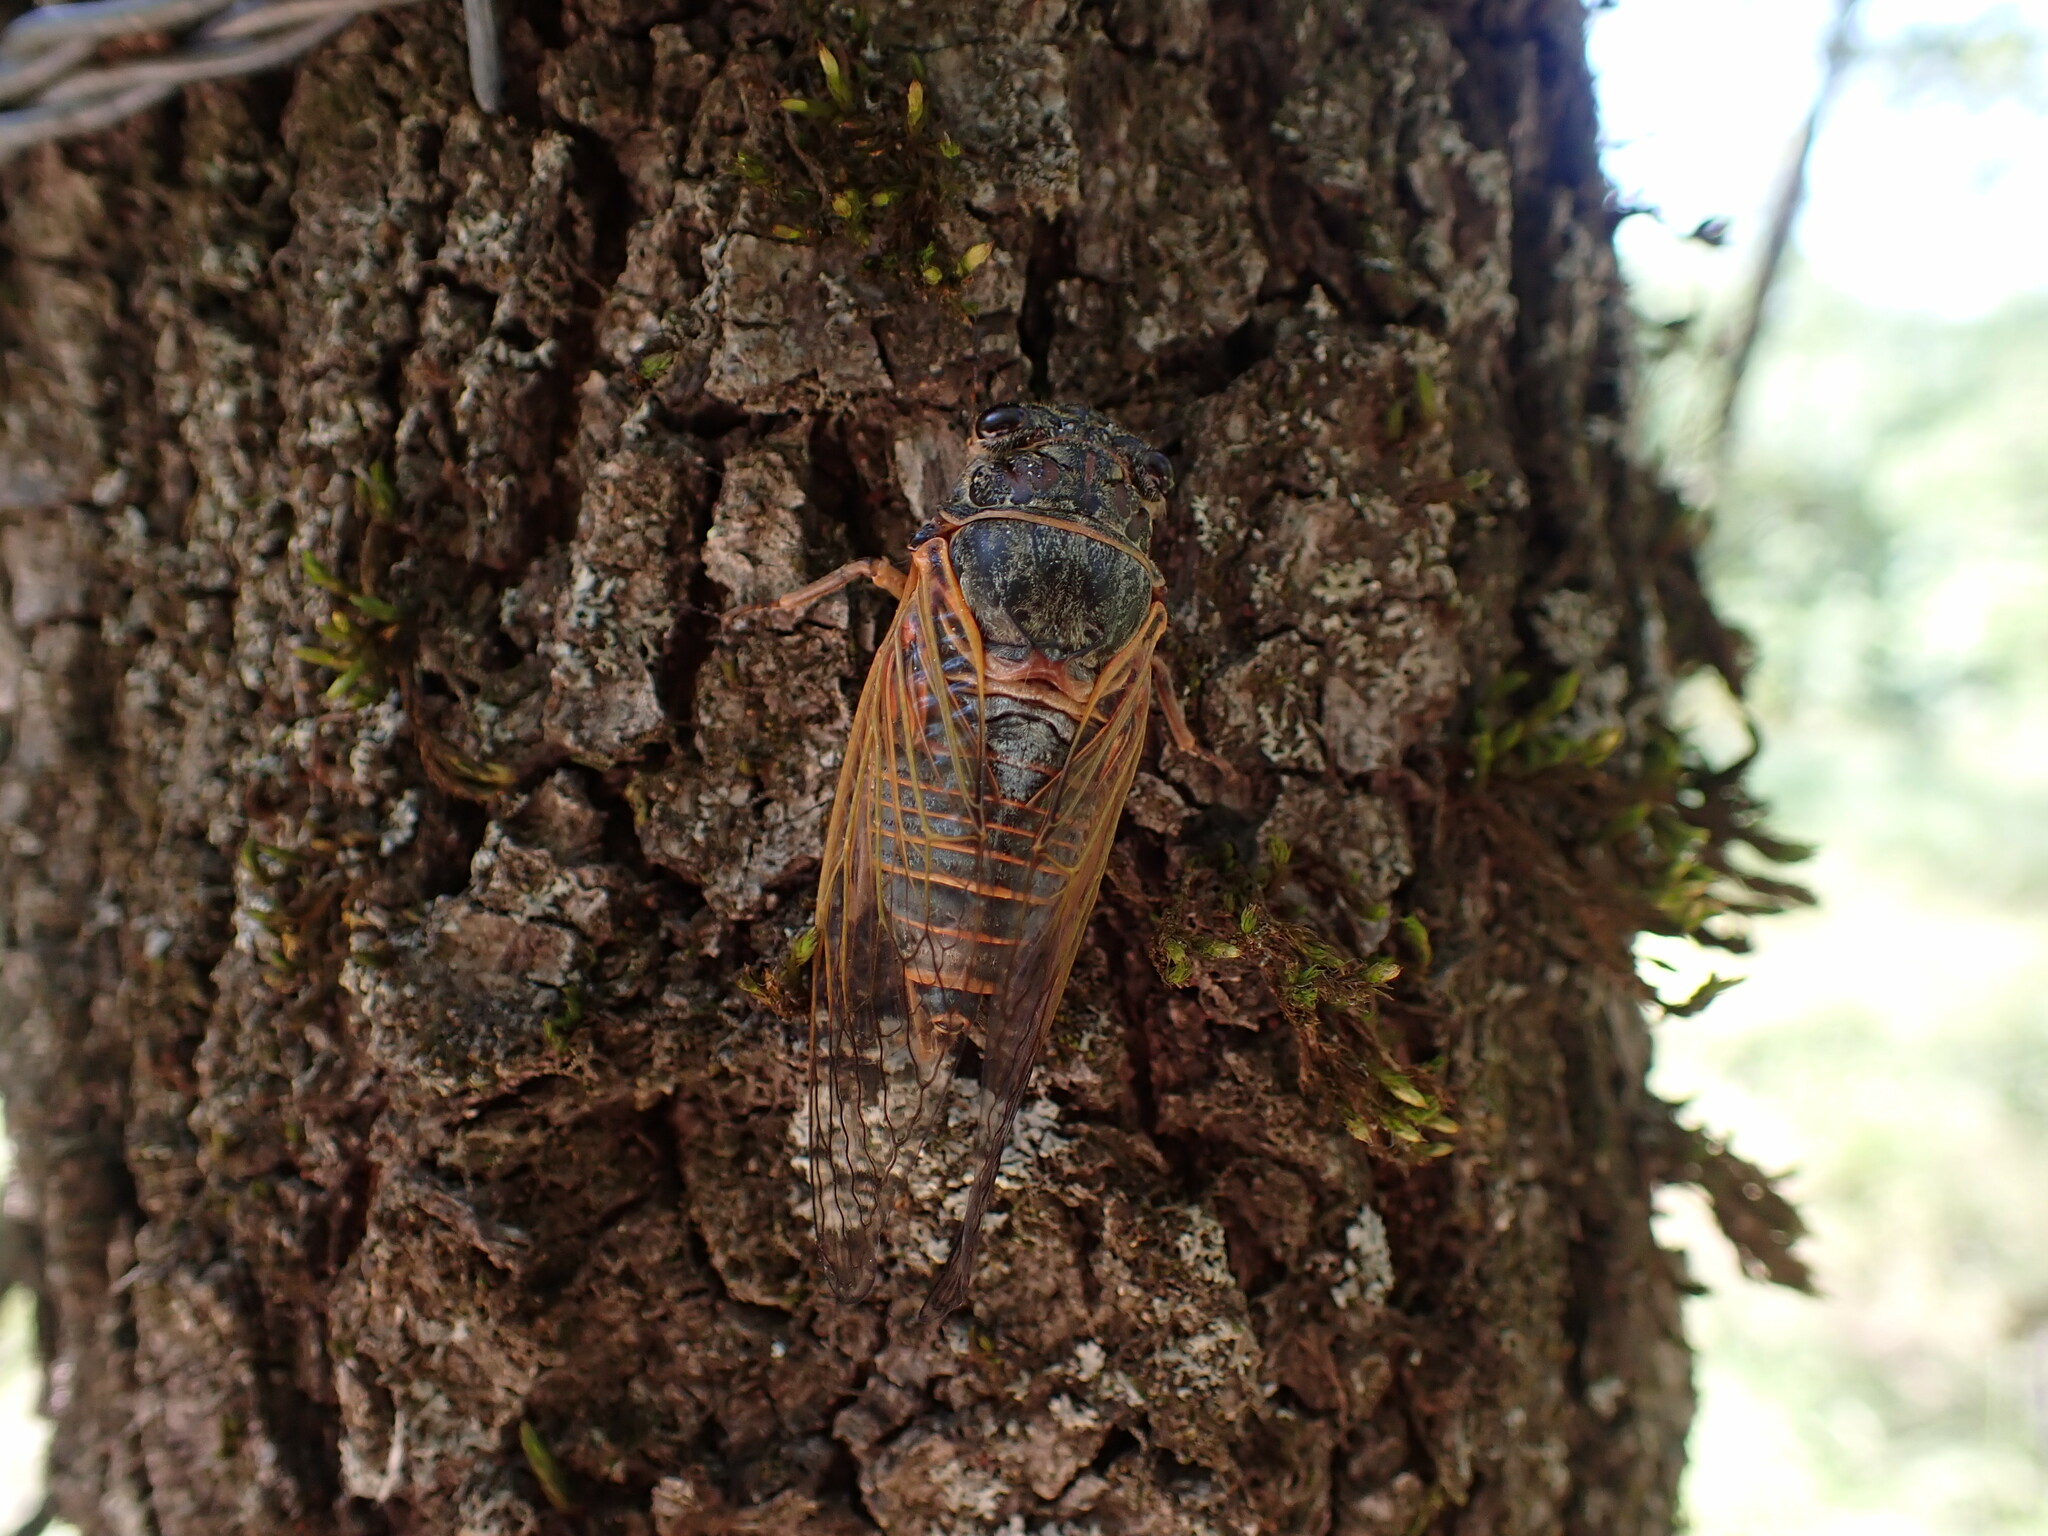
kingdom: Animalia
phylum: Arthropoda
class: Insecta
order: Hemiptera
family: Cicadidae
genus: Tibicina
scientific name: Tibicina haematodes
